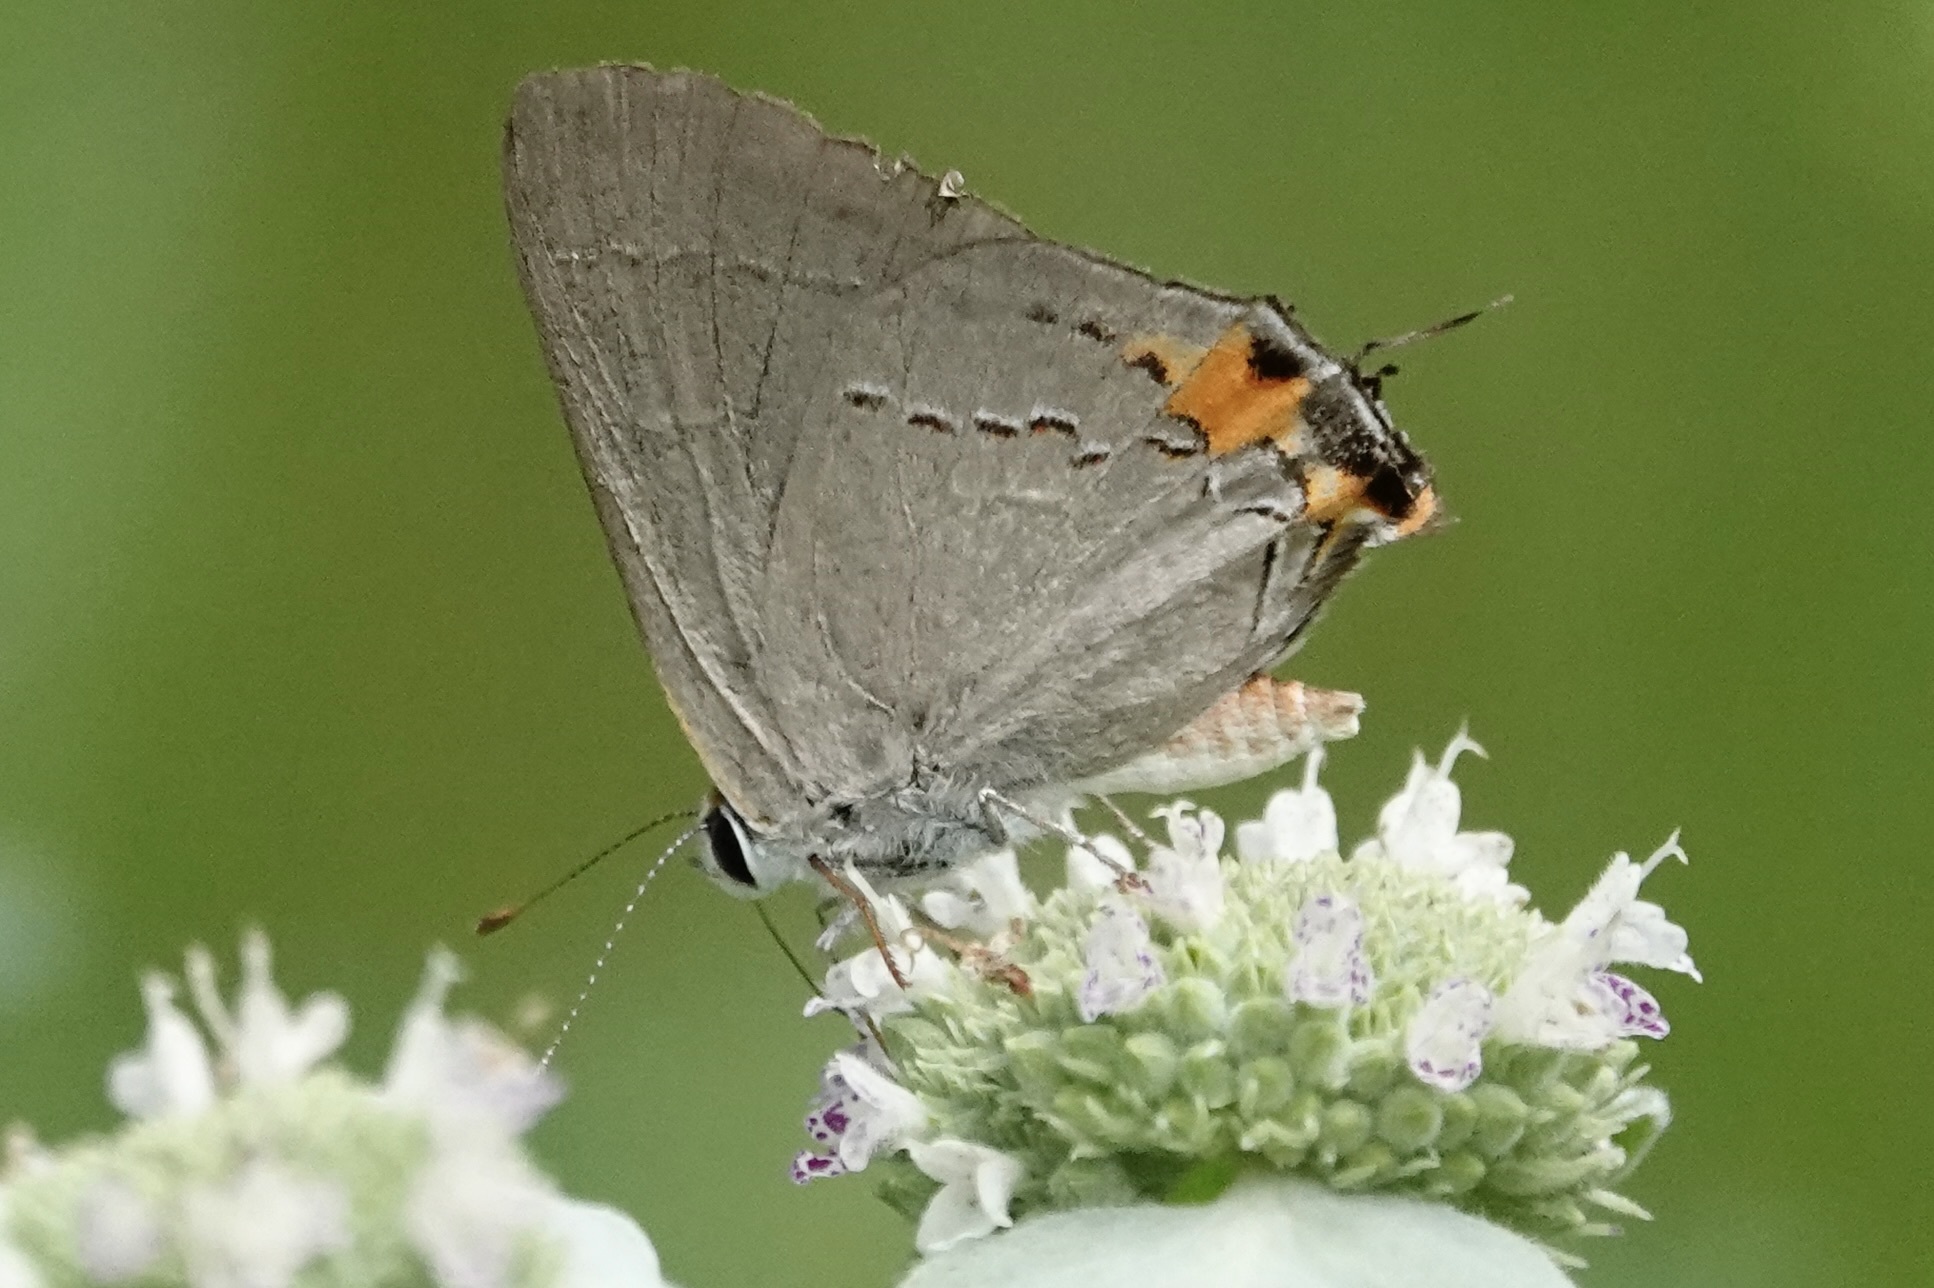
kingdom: Animalia
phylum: Arthropoda
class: Insecta
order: Lepidoptera
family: Lycaenidae
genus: Strymon
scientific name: Strymon melinus
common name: Gray hairstreak
